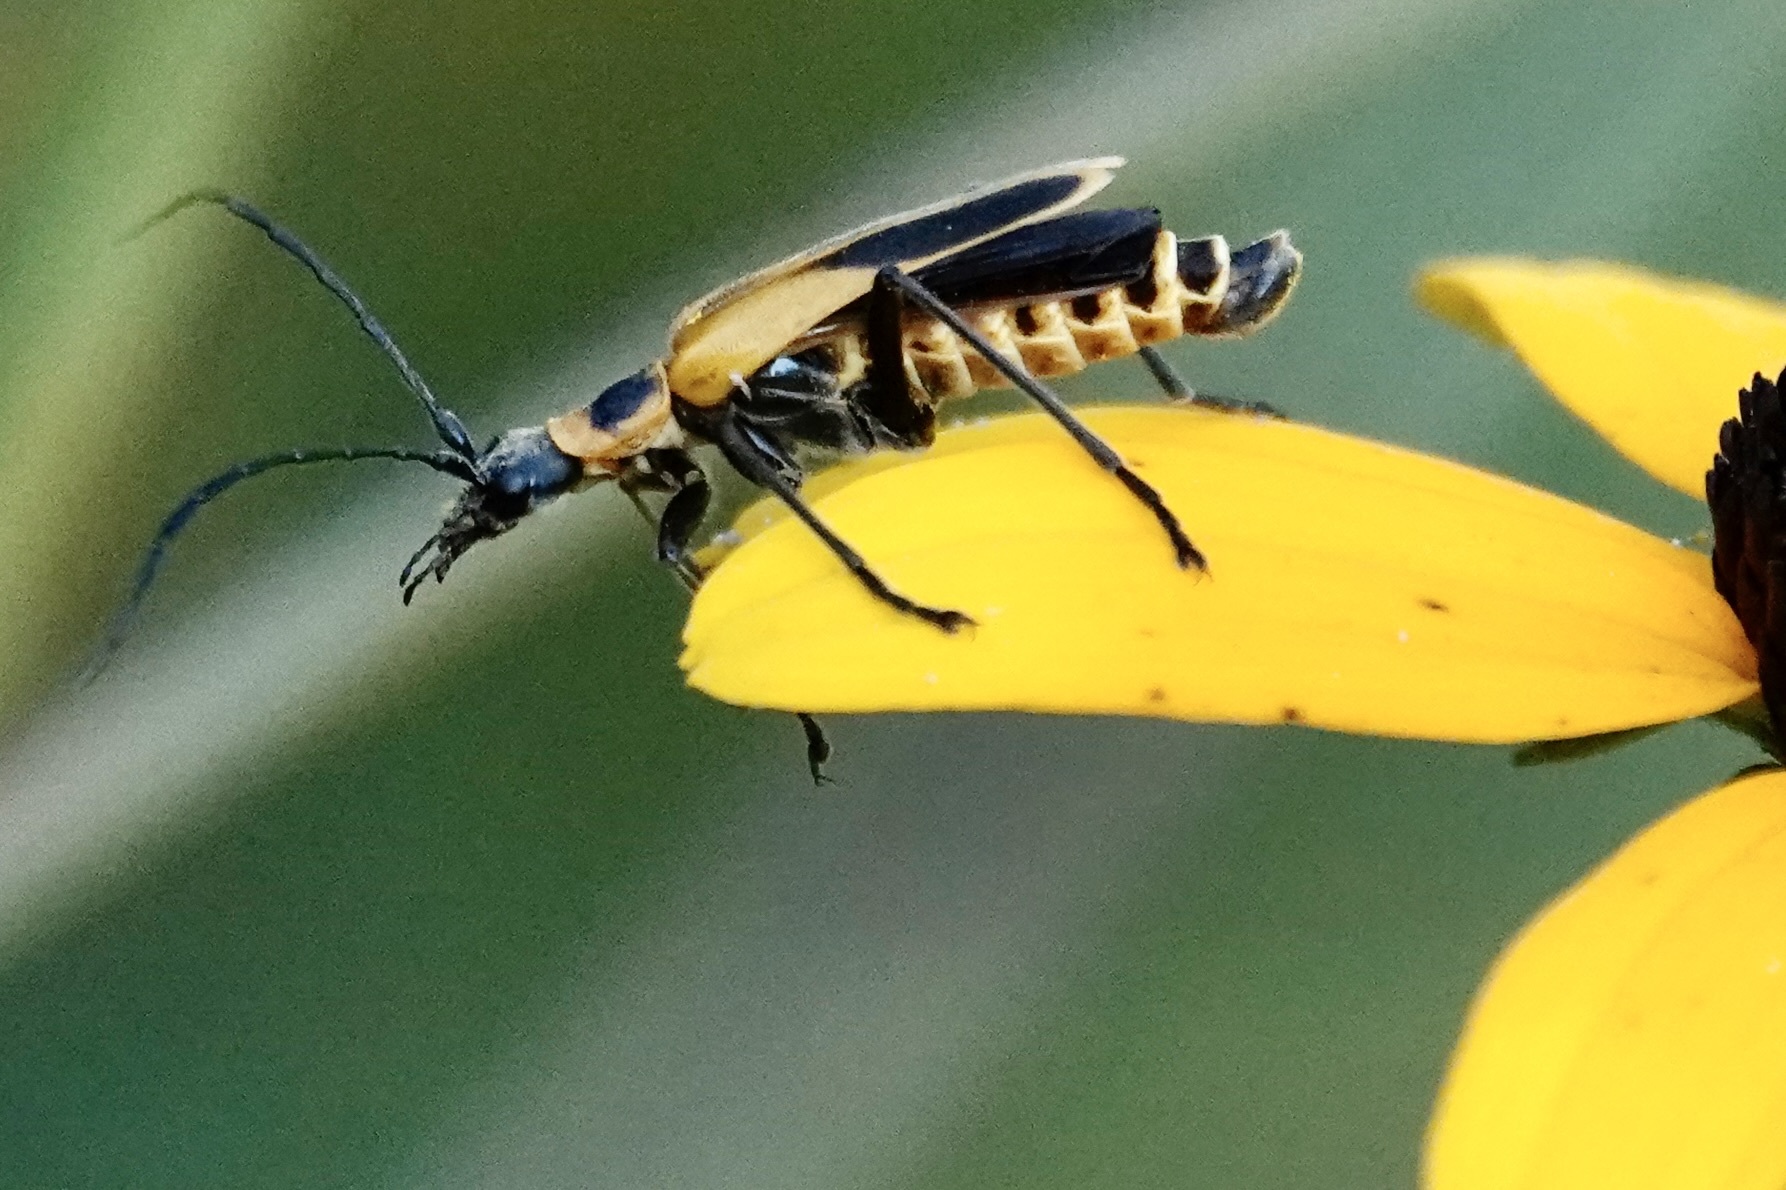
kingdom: Animalia
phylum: Arthropoda
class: Insecta
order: Coleoptera
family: Cantharidae
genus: Chauliognathus
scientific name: Chauliognathus pensylvanicus
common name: Goldenrod soldier beetle
